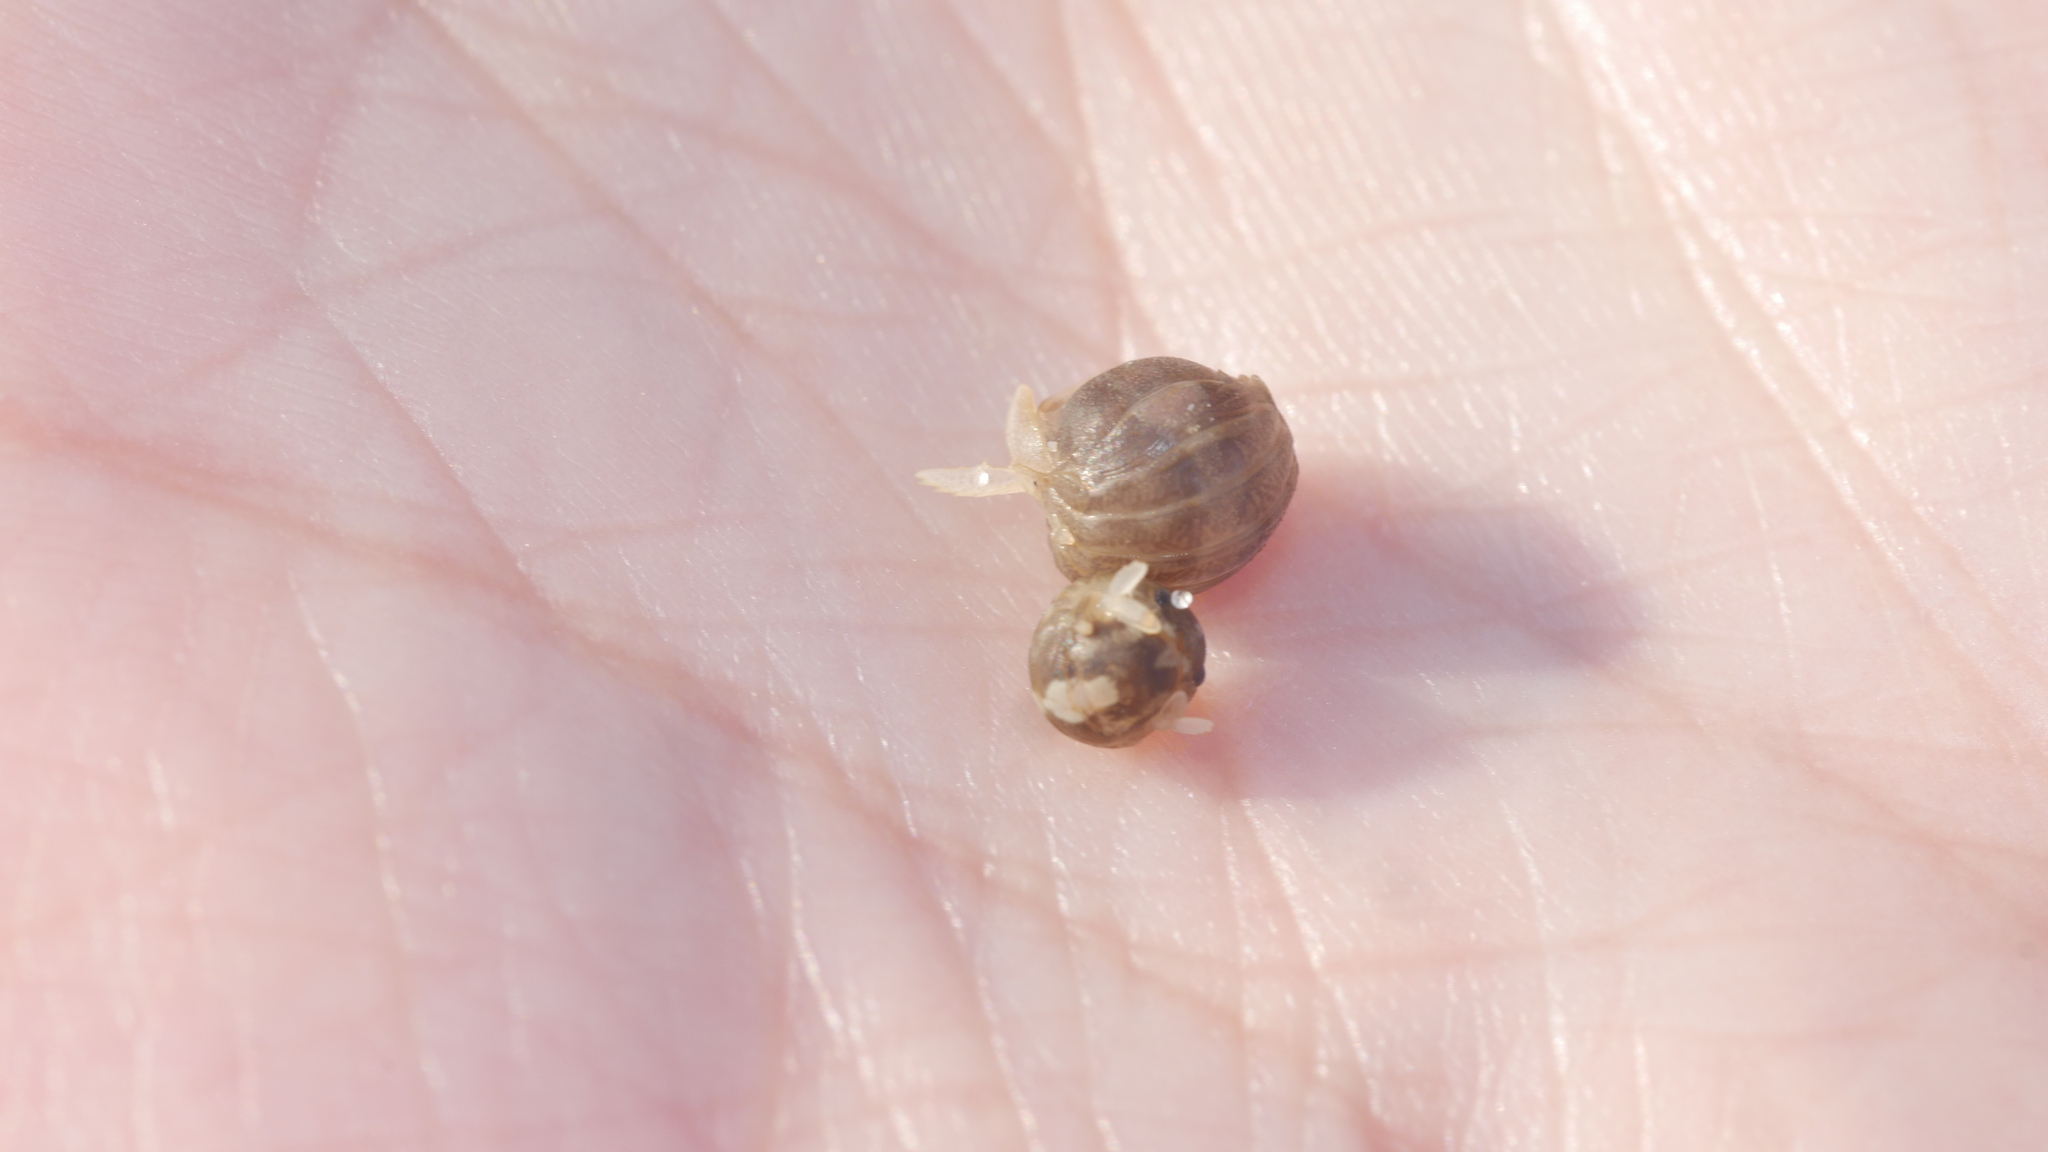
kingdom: Animalia
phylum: Arthropoda
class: Malacostraca
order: Isopoda
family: Sphaeromatidae
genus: Sphaeroma
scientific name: Sphaeroma quadridentatum
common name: Sea pill bug
